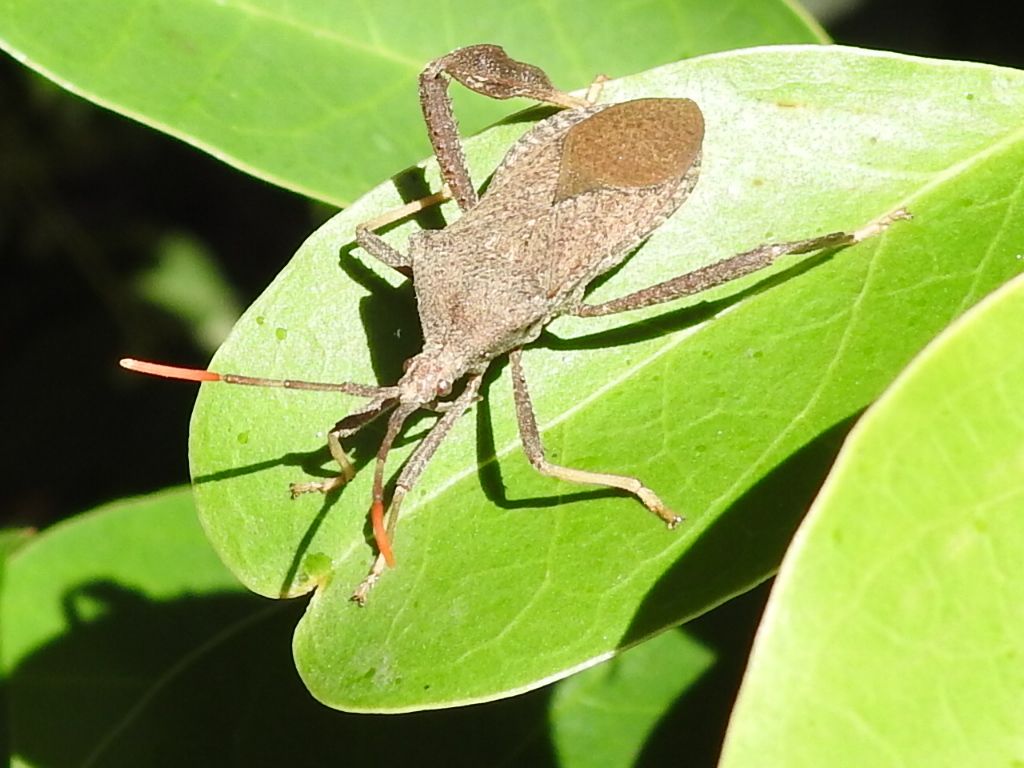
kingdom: Animalia
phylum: Arthropoda
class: Insecta
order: Hemiptera
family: Coreidae
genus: Acanthocephala
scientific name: Acanthocephala terminalis
